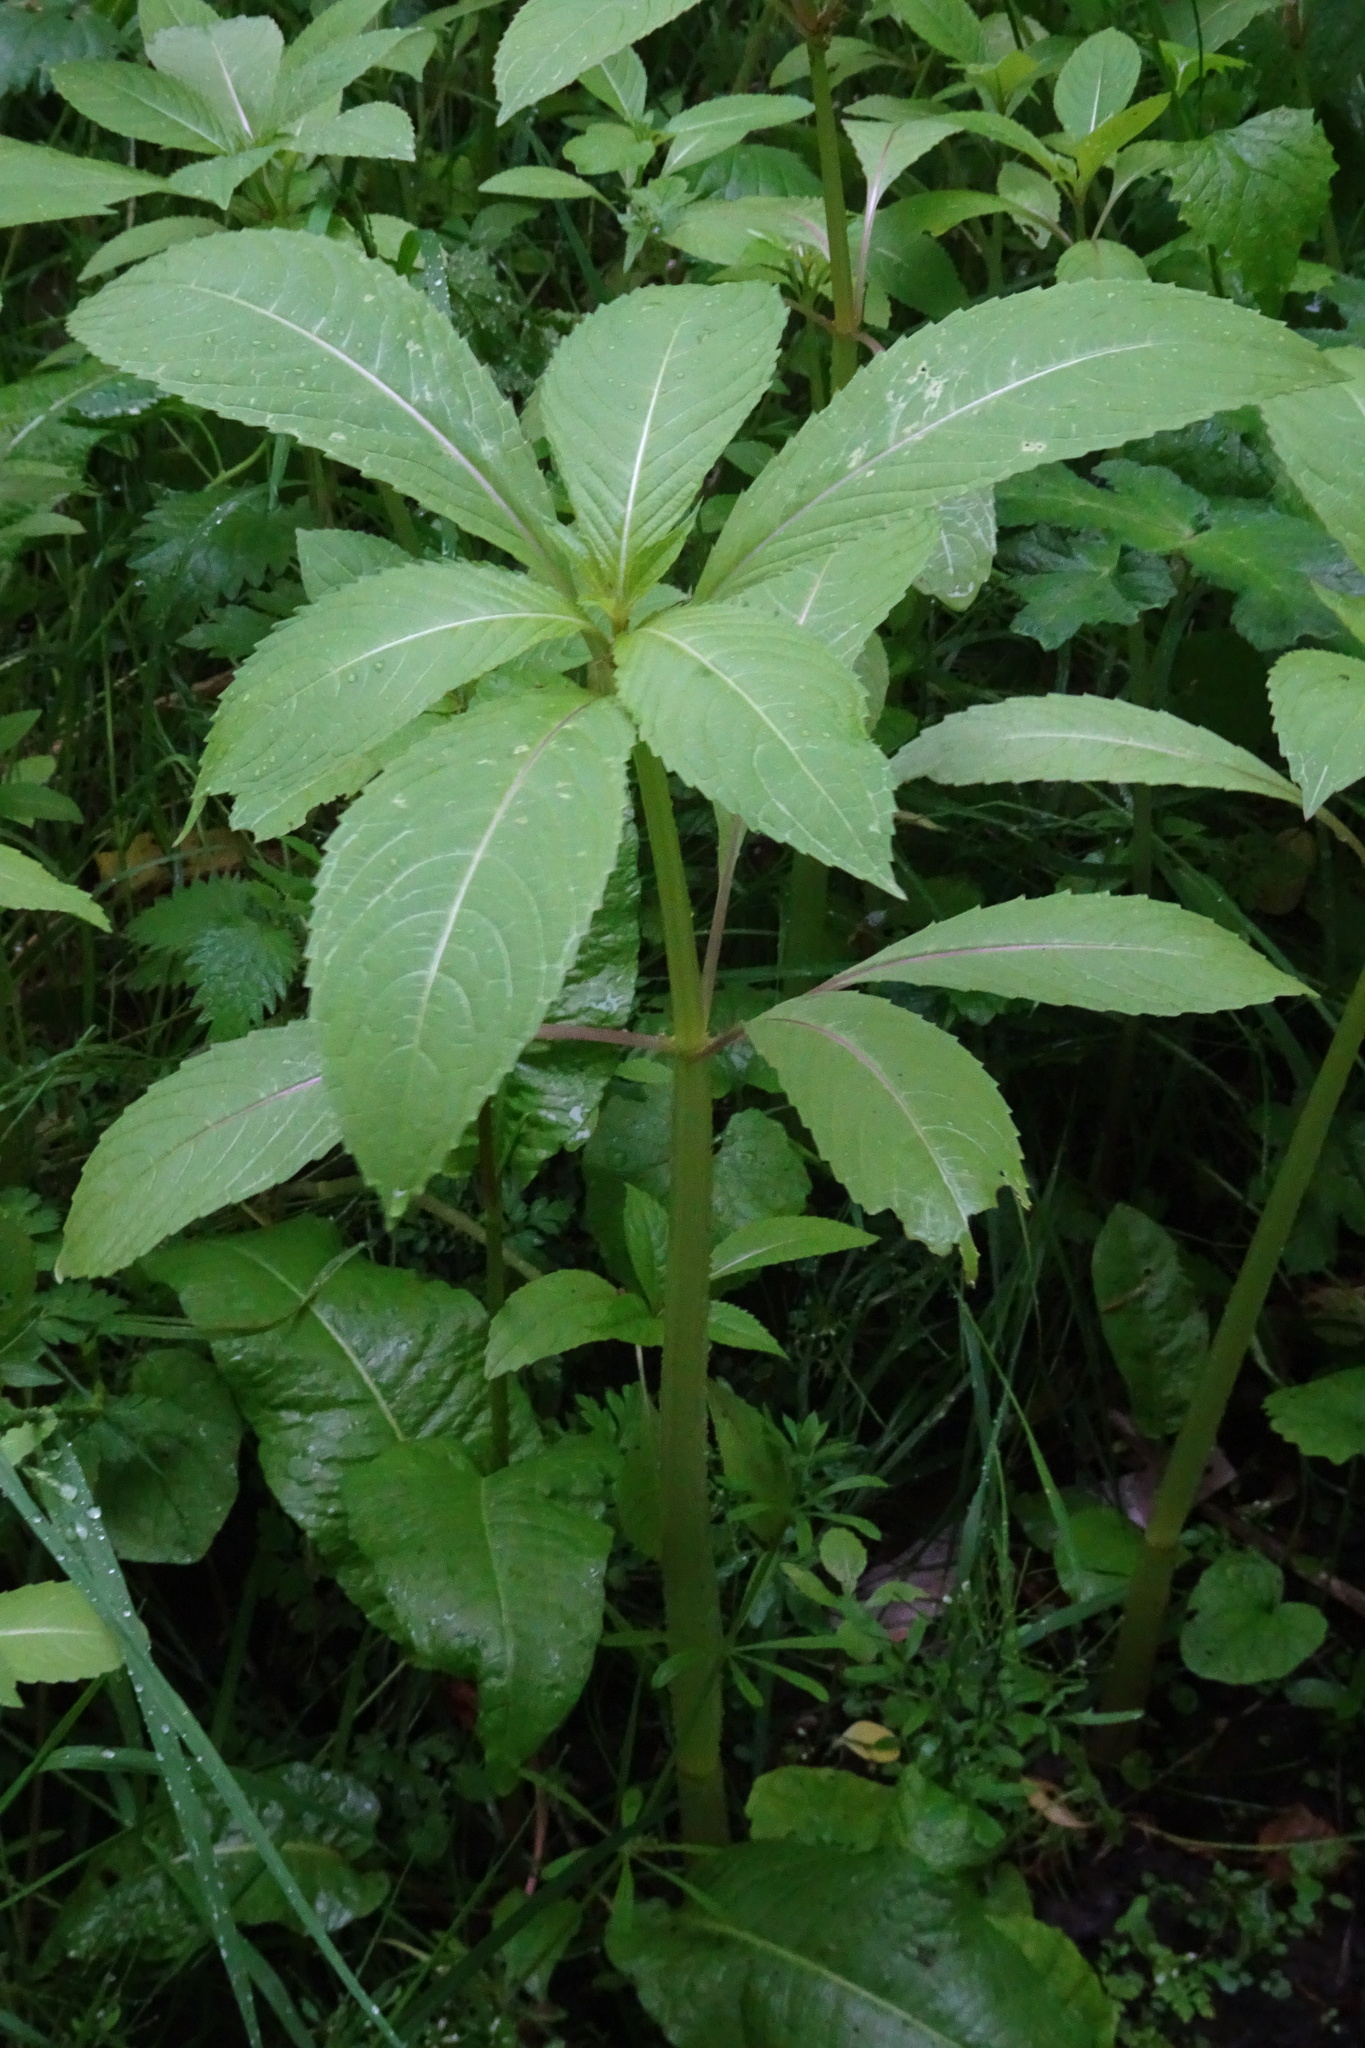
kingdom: Plantae
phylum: Tracheophyta
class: Magnoliopsida
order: Ericales
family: Balsaminaceae
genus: Impatiens
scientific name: Impatiens glandulifera
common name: Himalayan balsam
